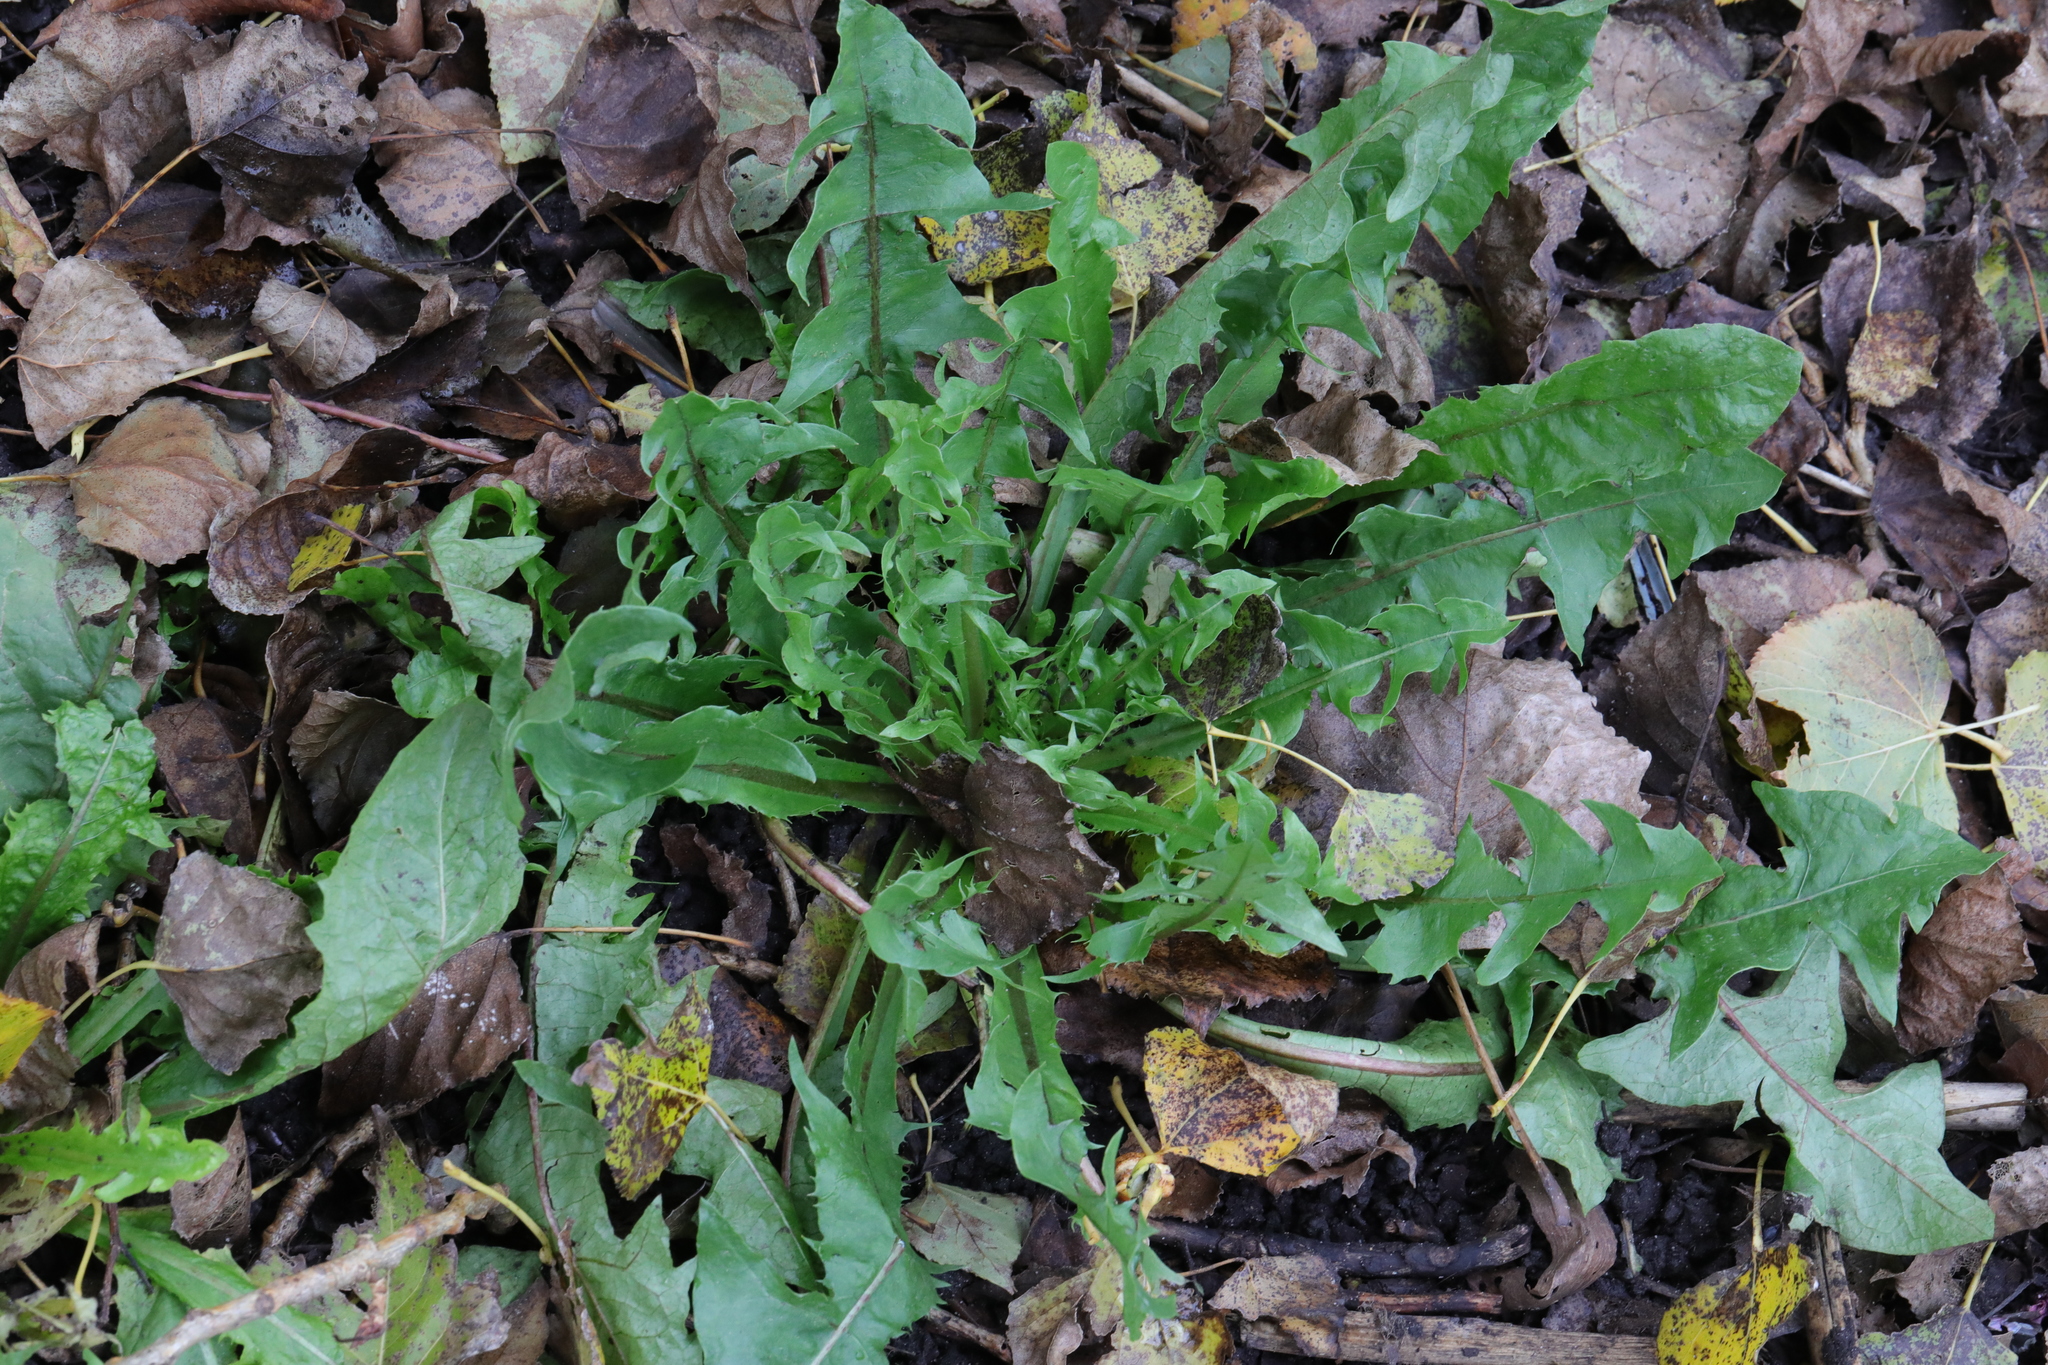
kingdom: Plantae
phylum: Tracheophyta
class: Magnoliopsida
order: Asterales
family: Asteraceae
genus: Taraxacum
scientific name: Taraxacum officinale
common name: Common dandelion
